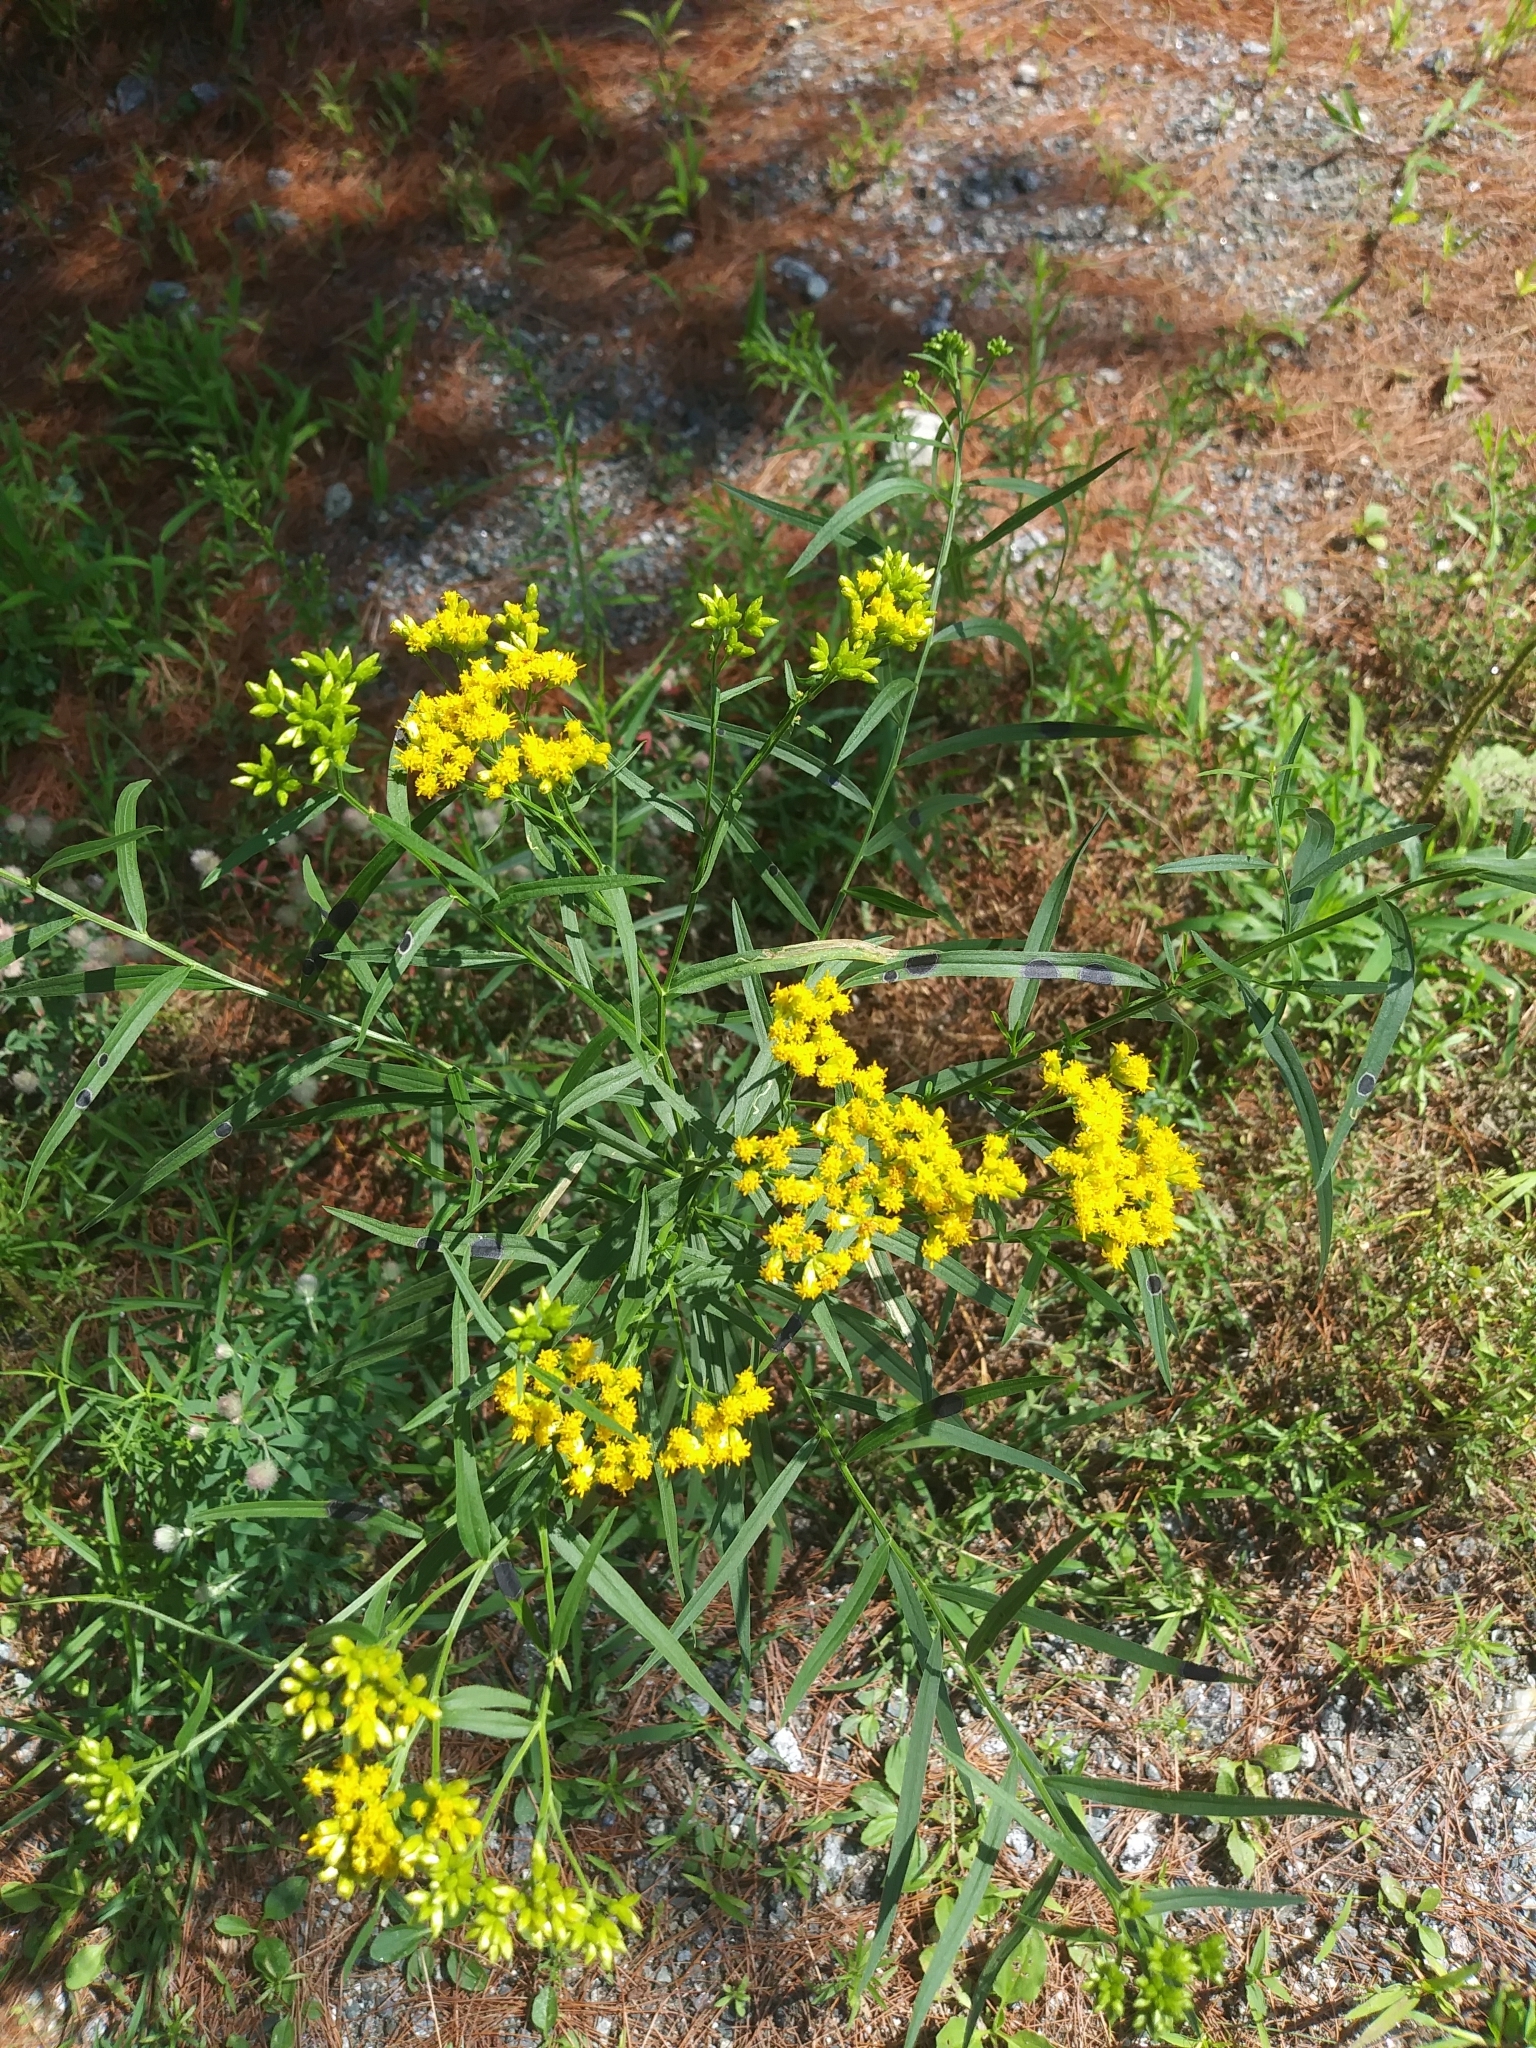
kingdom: Plantae
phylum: Tracheophyta
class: Magnoliopsida
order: Asterales
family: Asteraceae
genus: Euthamia
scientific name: Euthamia graminifolia
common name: Common goldentop
